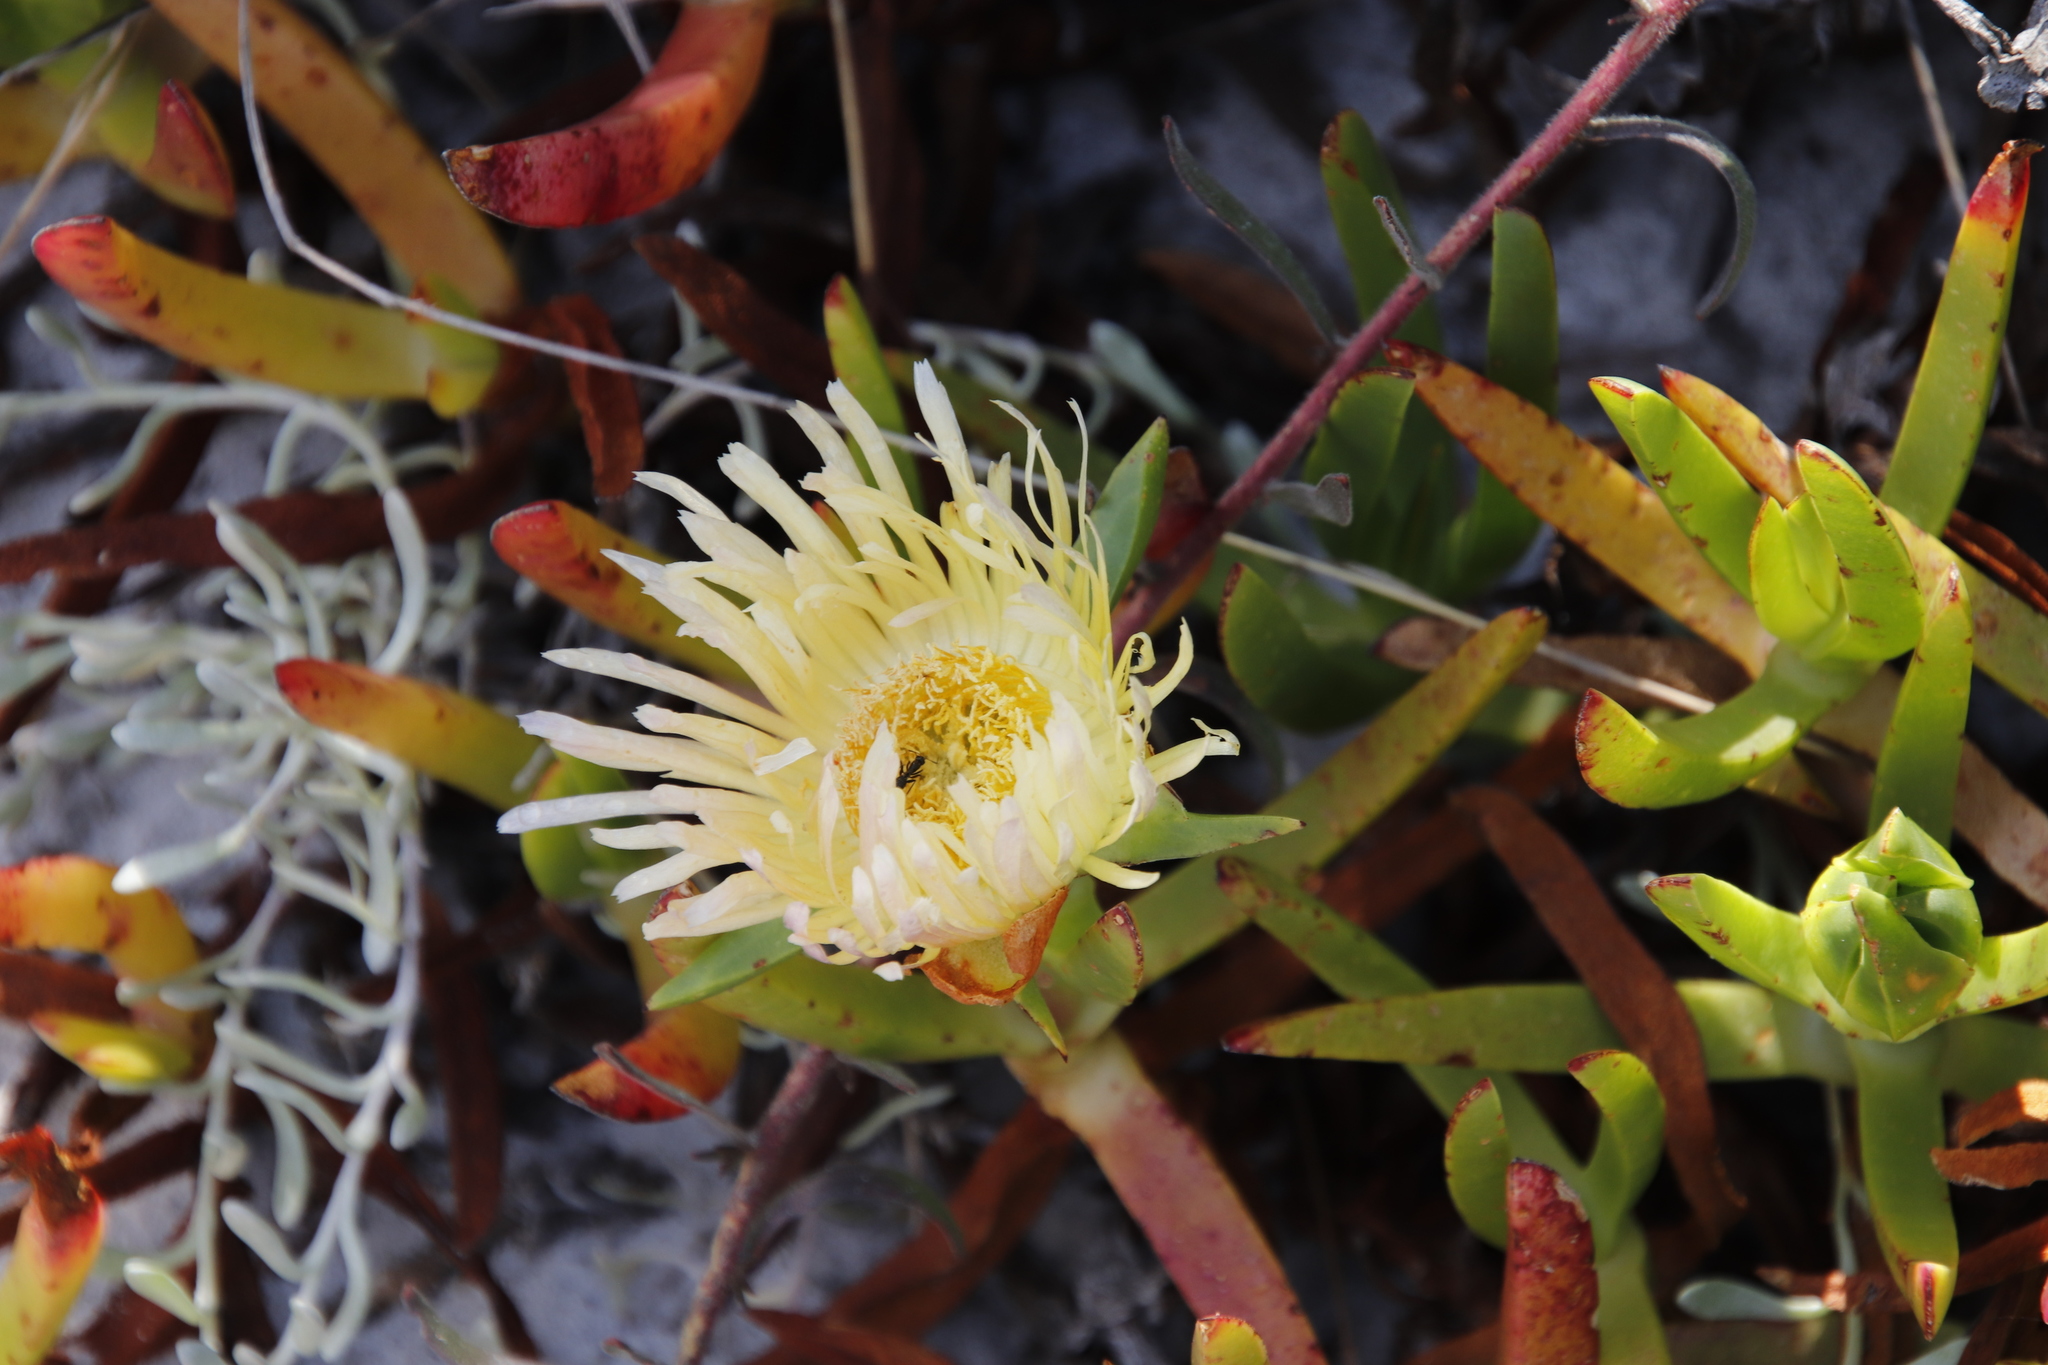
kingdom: Plantae
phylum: Tracheophyta
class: Magnoliopsida
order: Caryophyllales
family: Aizoaceae
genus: Carpobrotus
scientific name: Carpobrotus edulis
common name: Hottentot-fig
